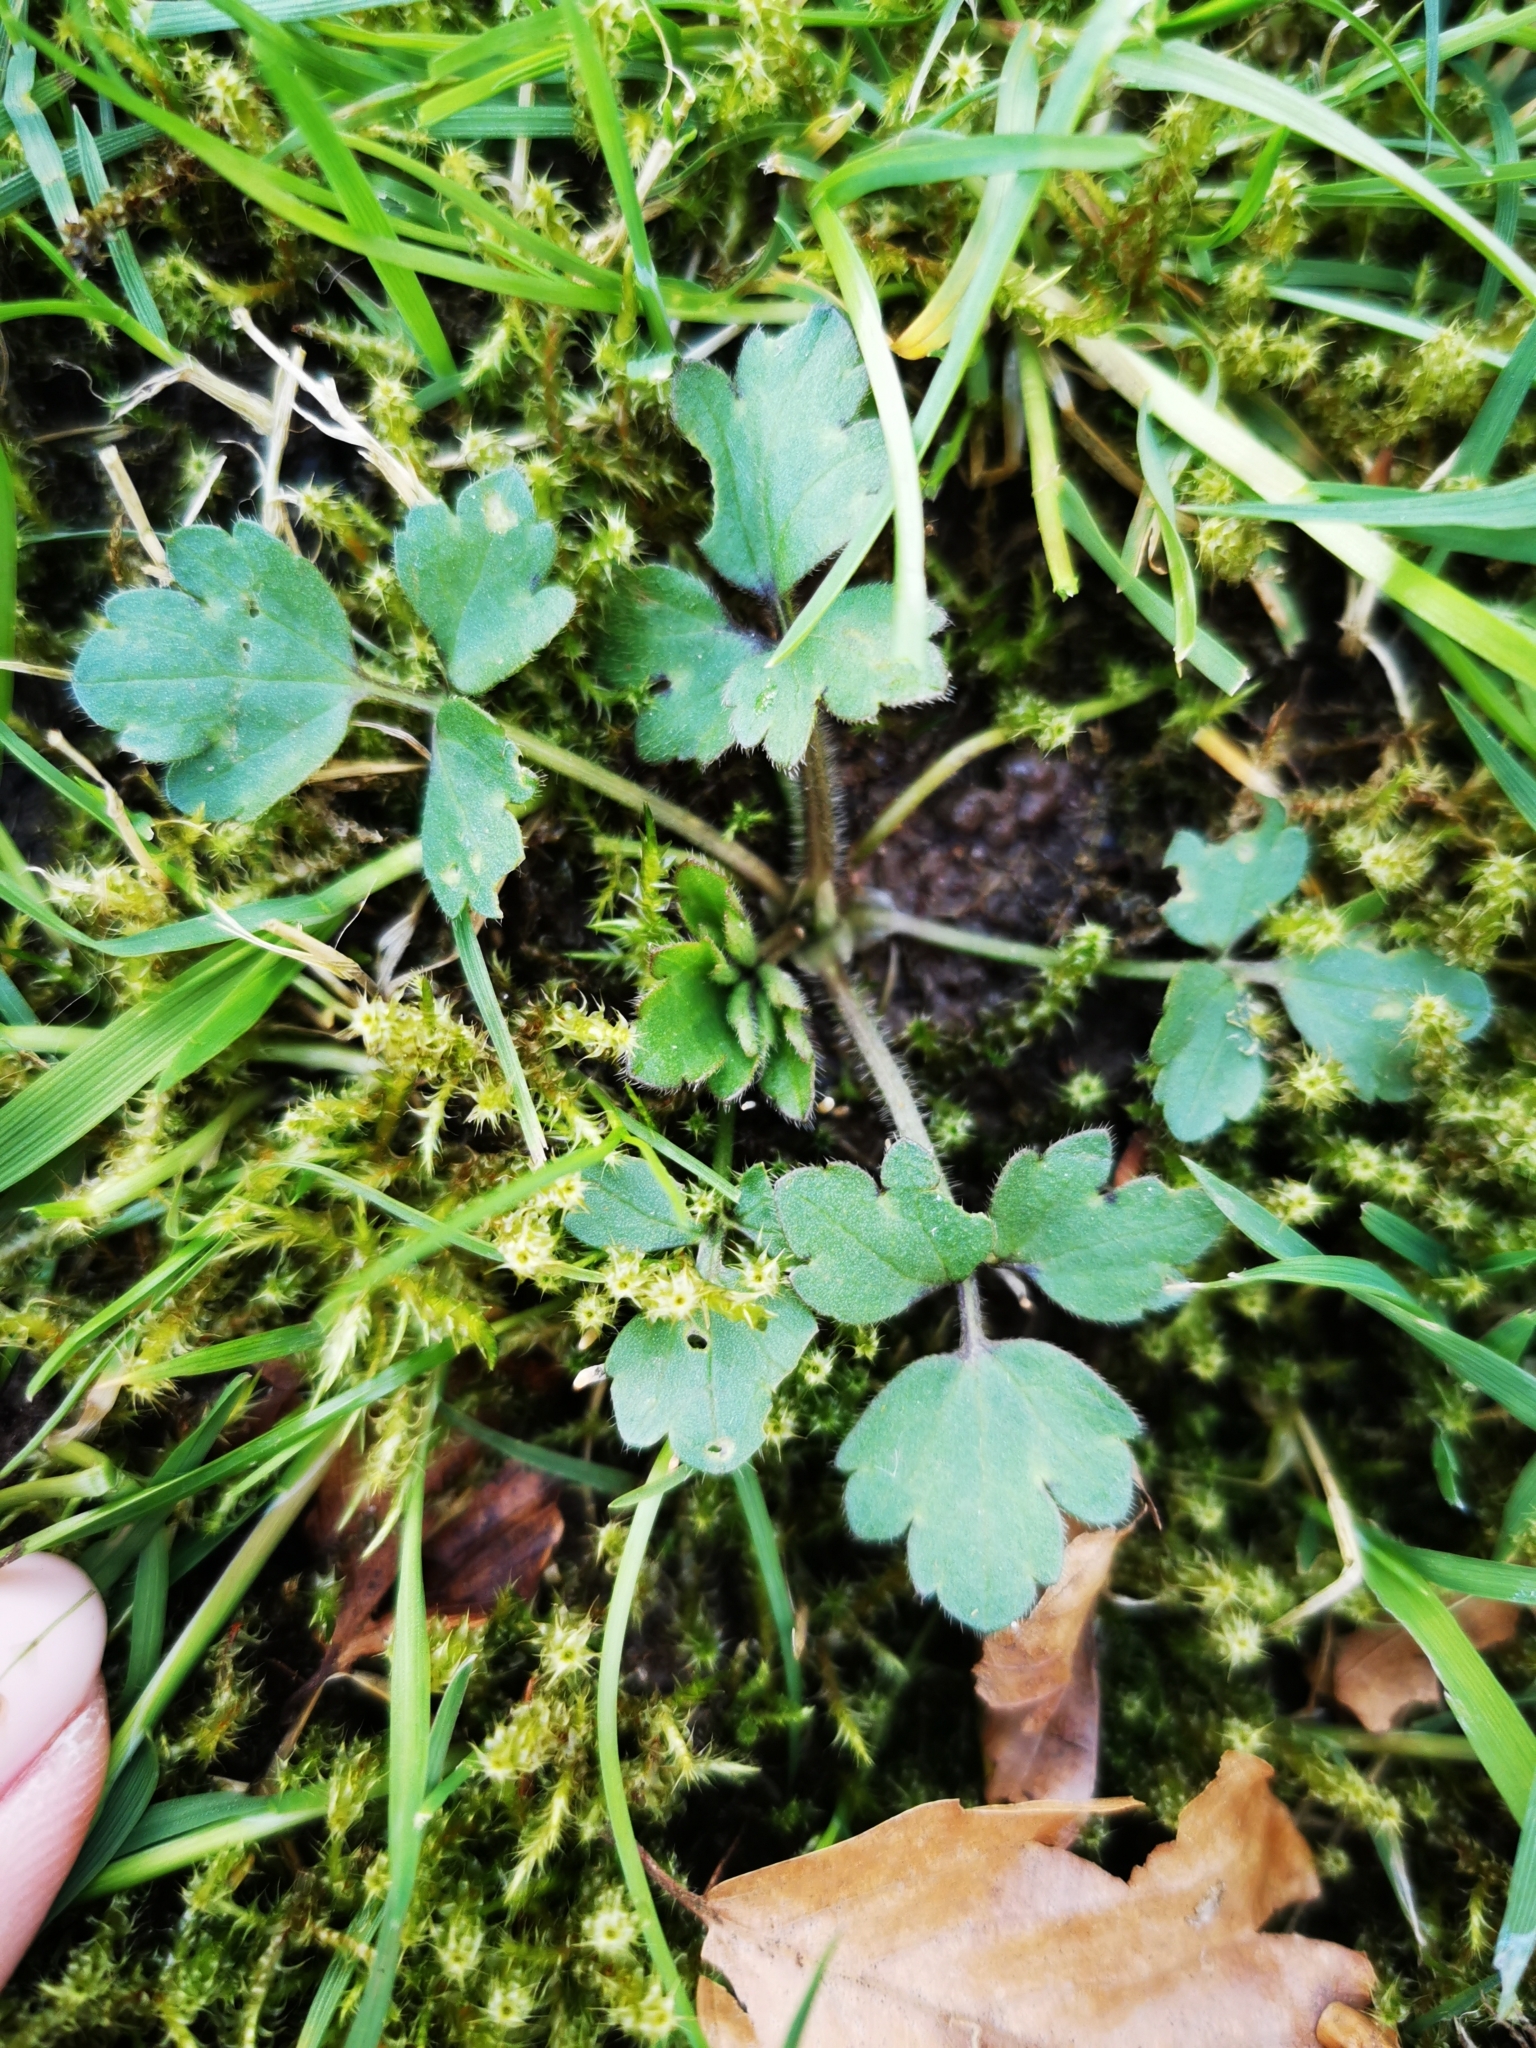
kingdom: Plantae
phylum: Tracheophyta
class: Magnoliopsida
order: Ranunculales
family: Ranunculaceae
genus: Ranunculus
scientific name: Ranunculus repens
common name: Creeping buttercup
